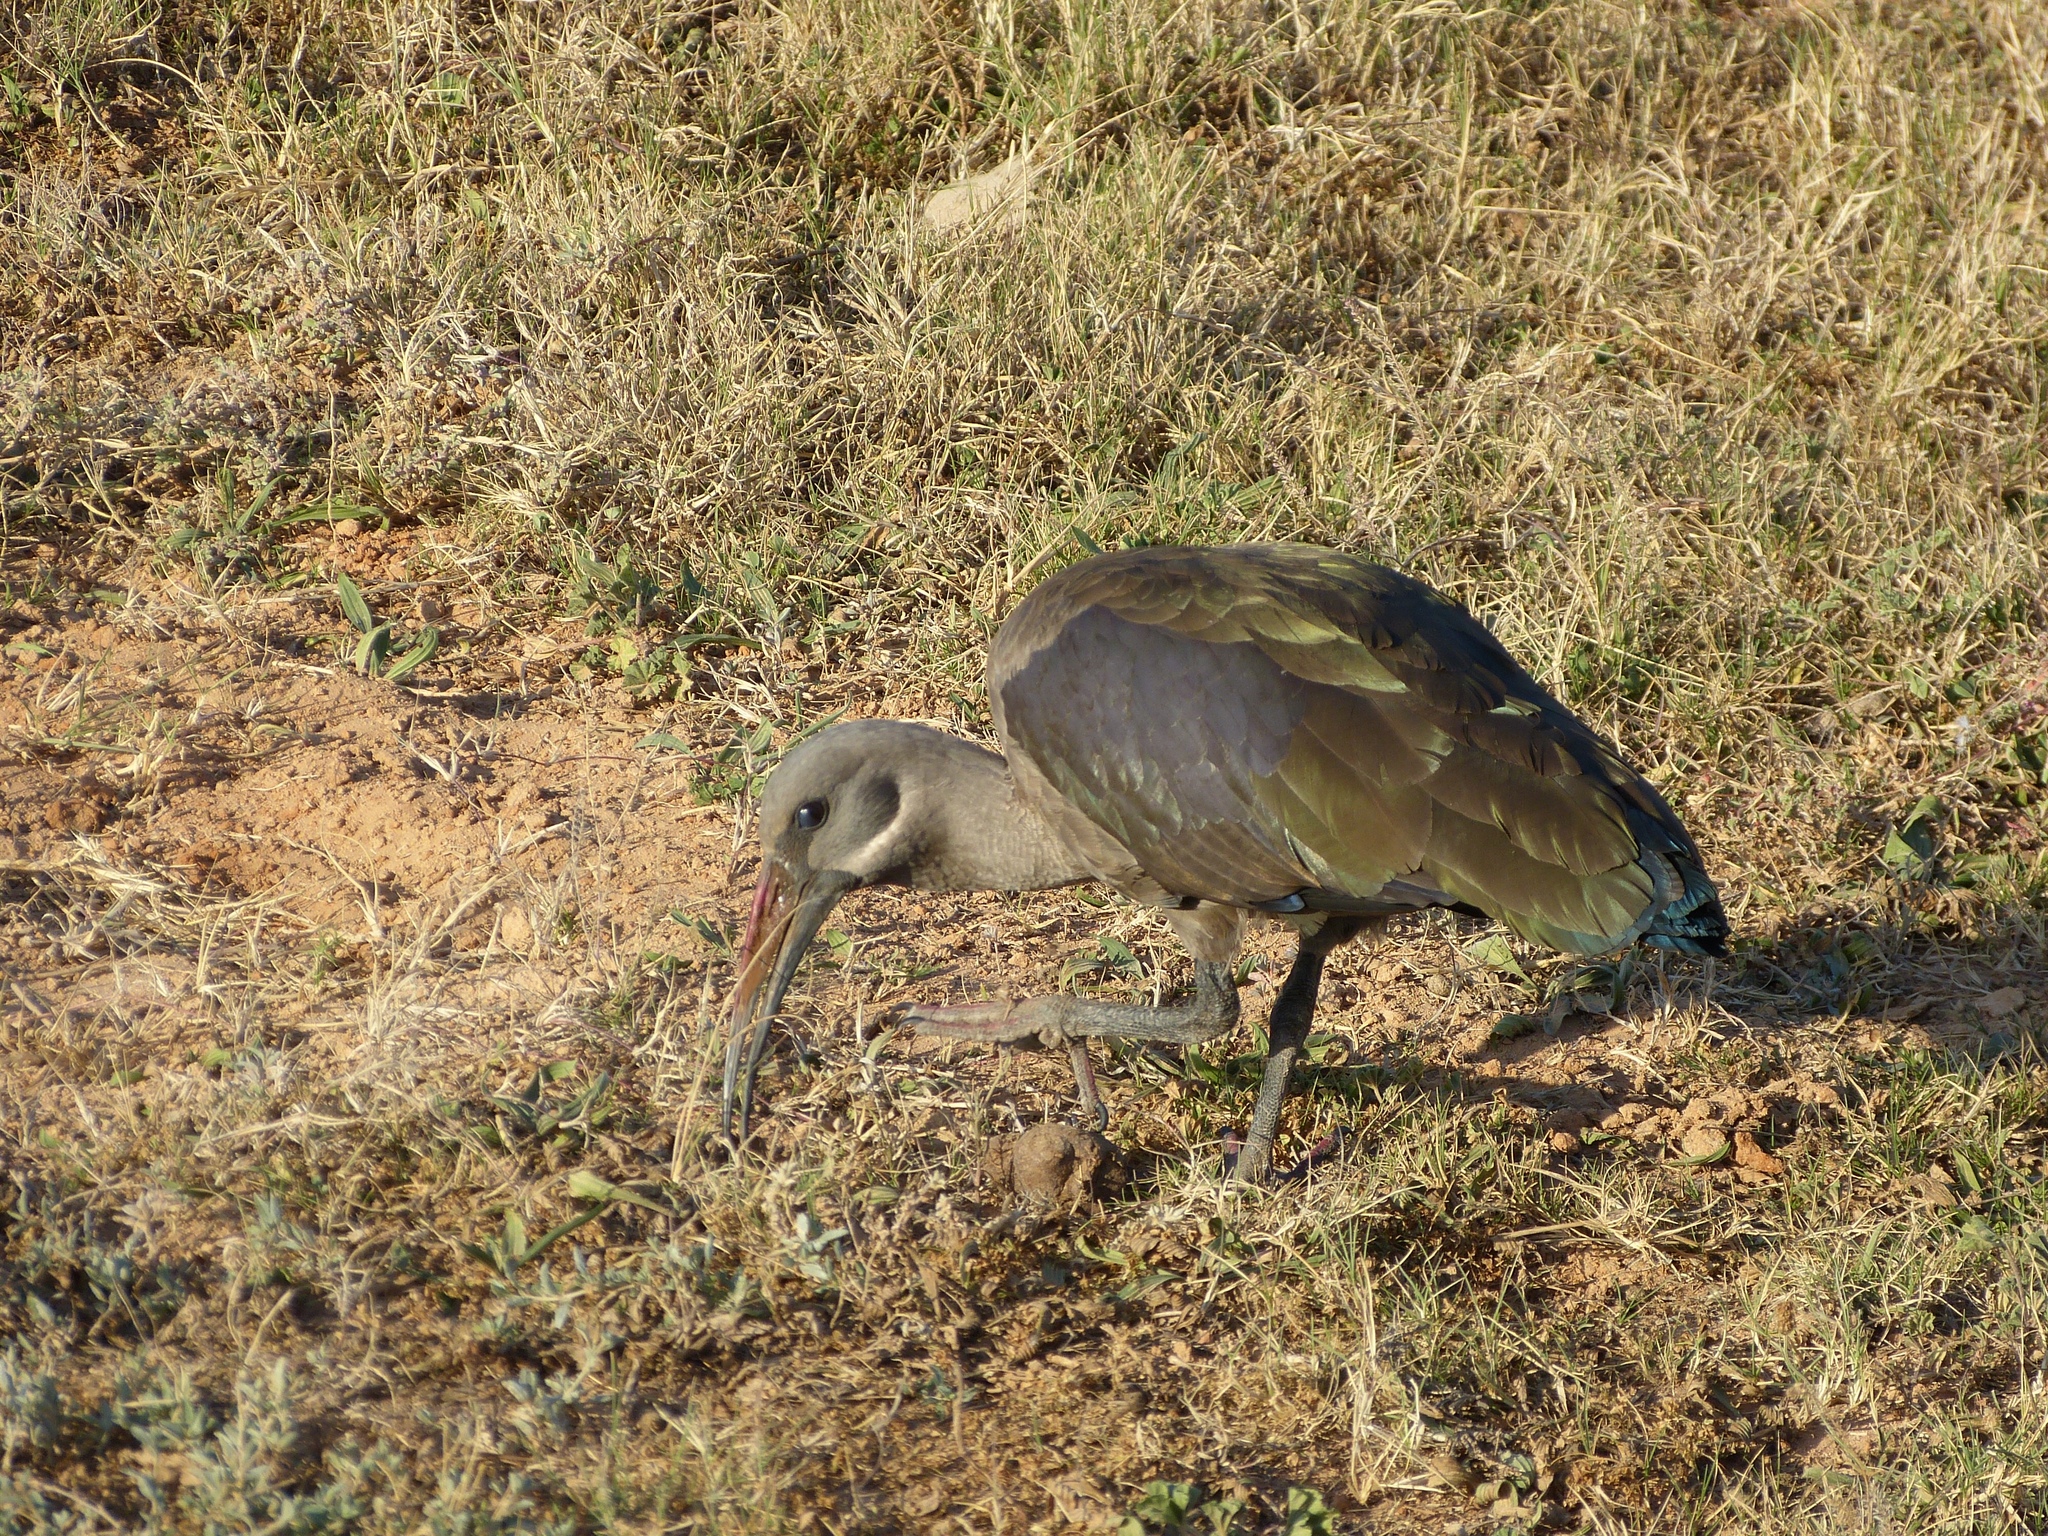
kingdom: Animalia
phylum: Chordata
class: Aves
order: Pelecaniformes
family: Threskiornithidae
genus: Bostrychia
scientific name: Bostrychia hagedash
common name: Hadada ibis
